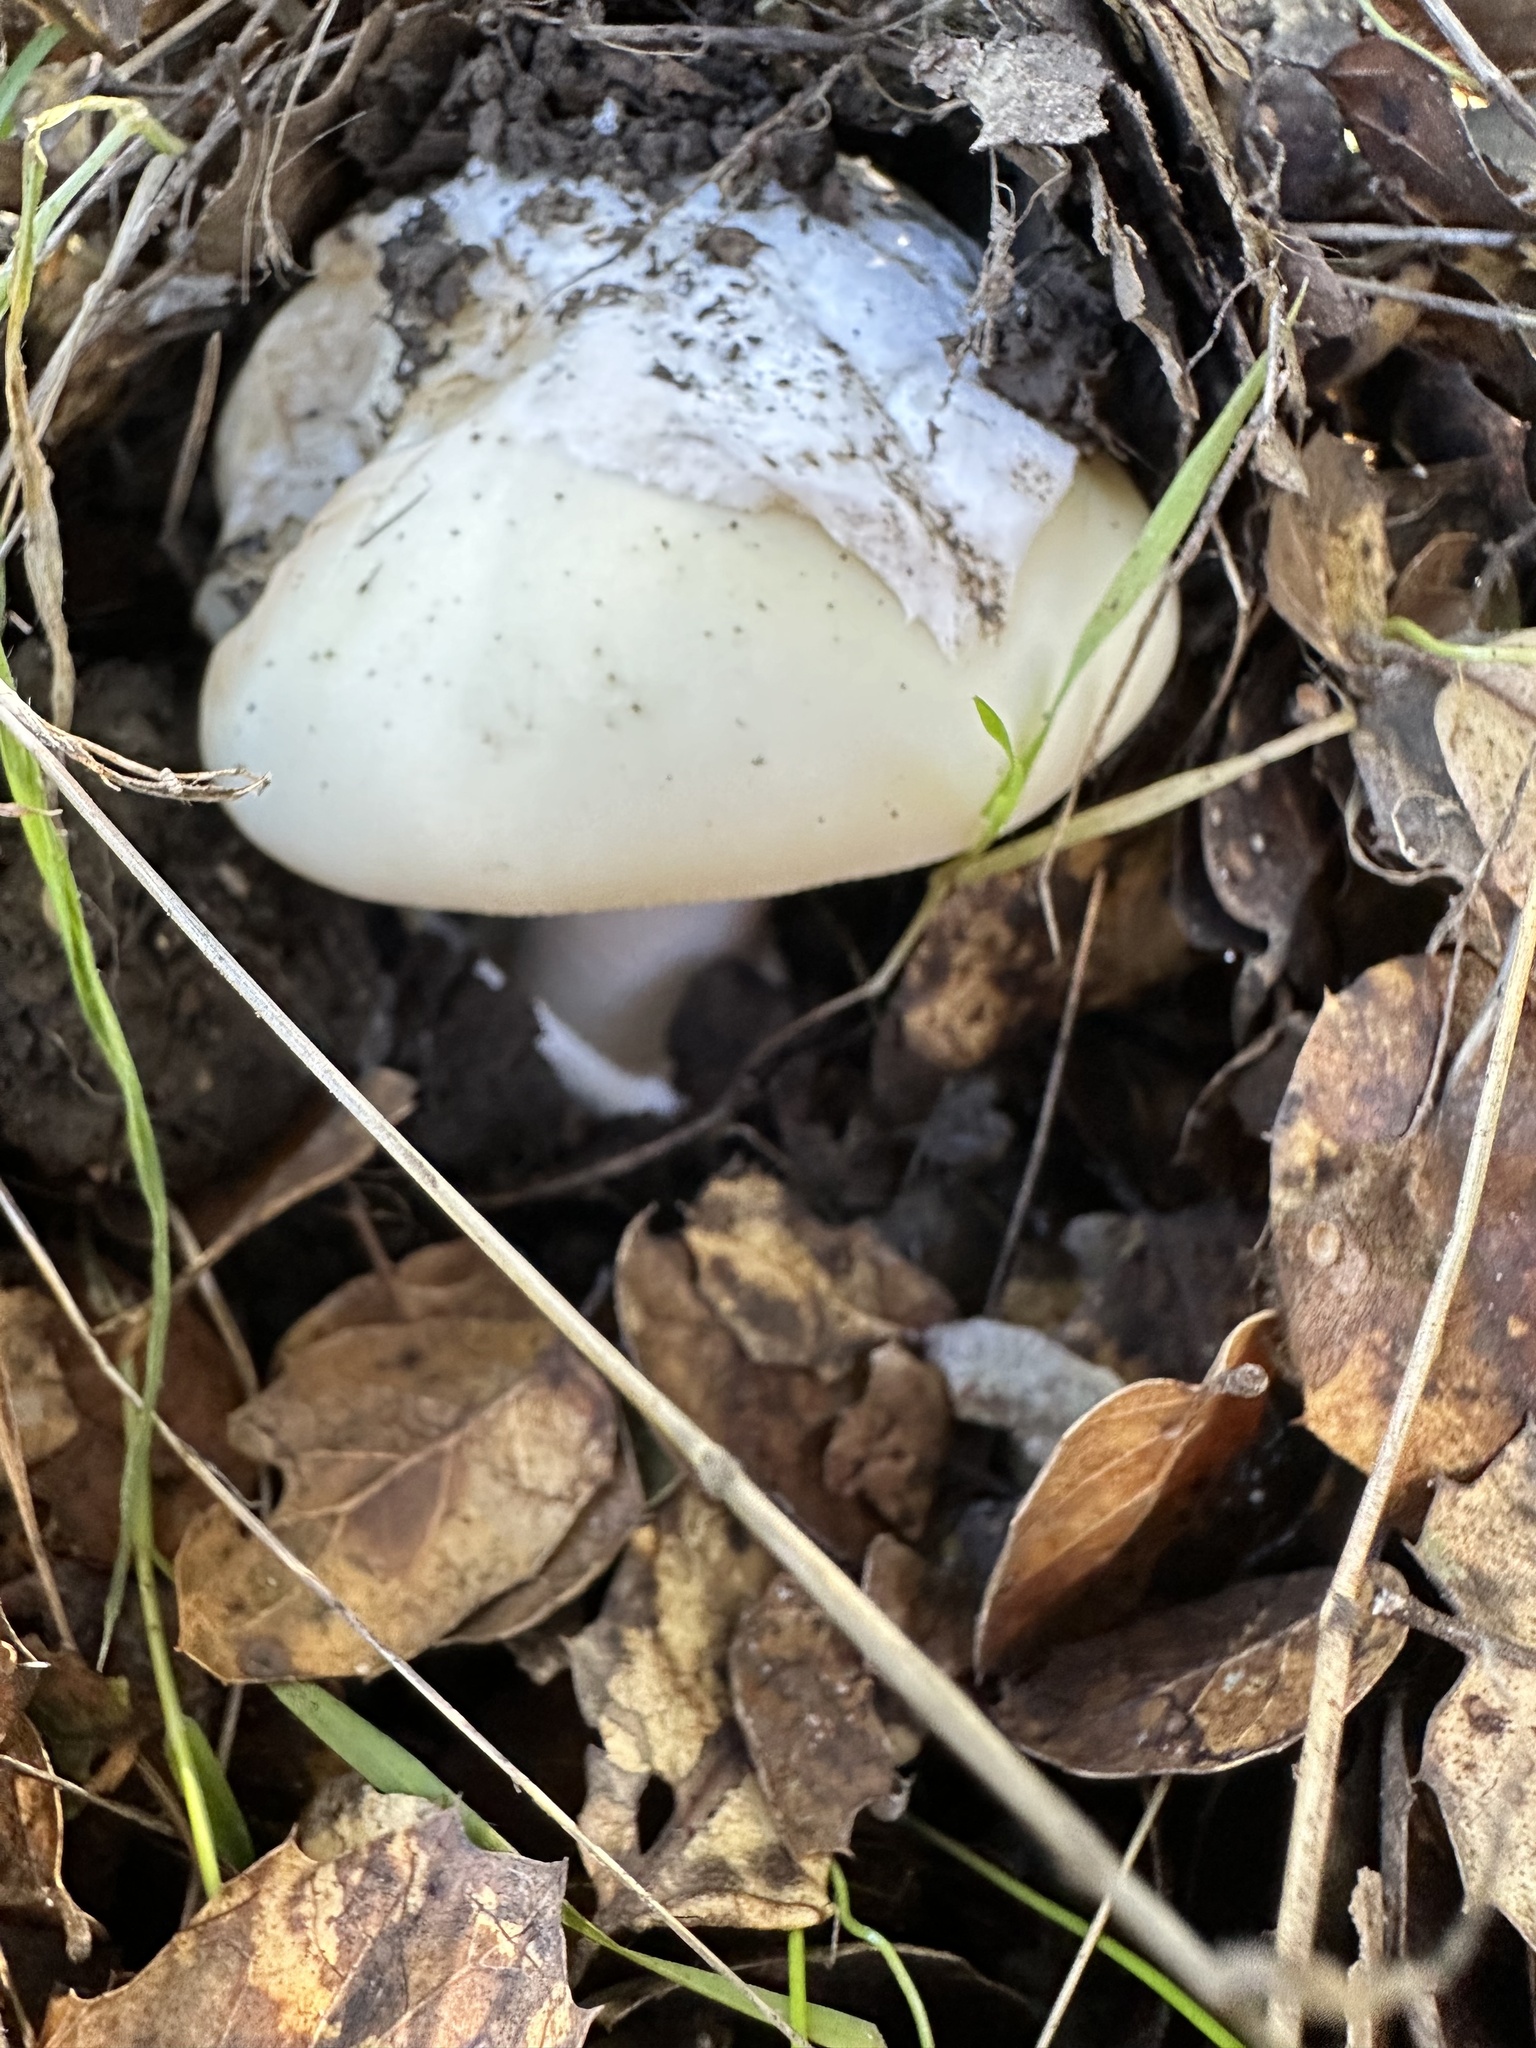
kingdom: Fungi
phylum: Basidiomycota
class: Agaricomycetes
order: Agaricales
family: Amanitaceae
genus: Amanita
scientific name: Amanita vernicoccora
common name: Spring coccora
